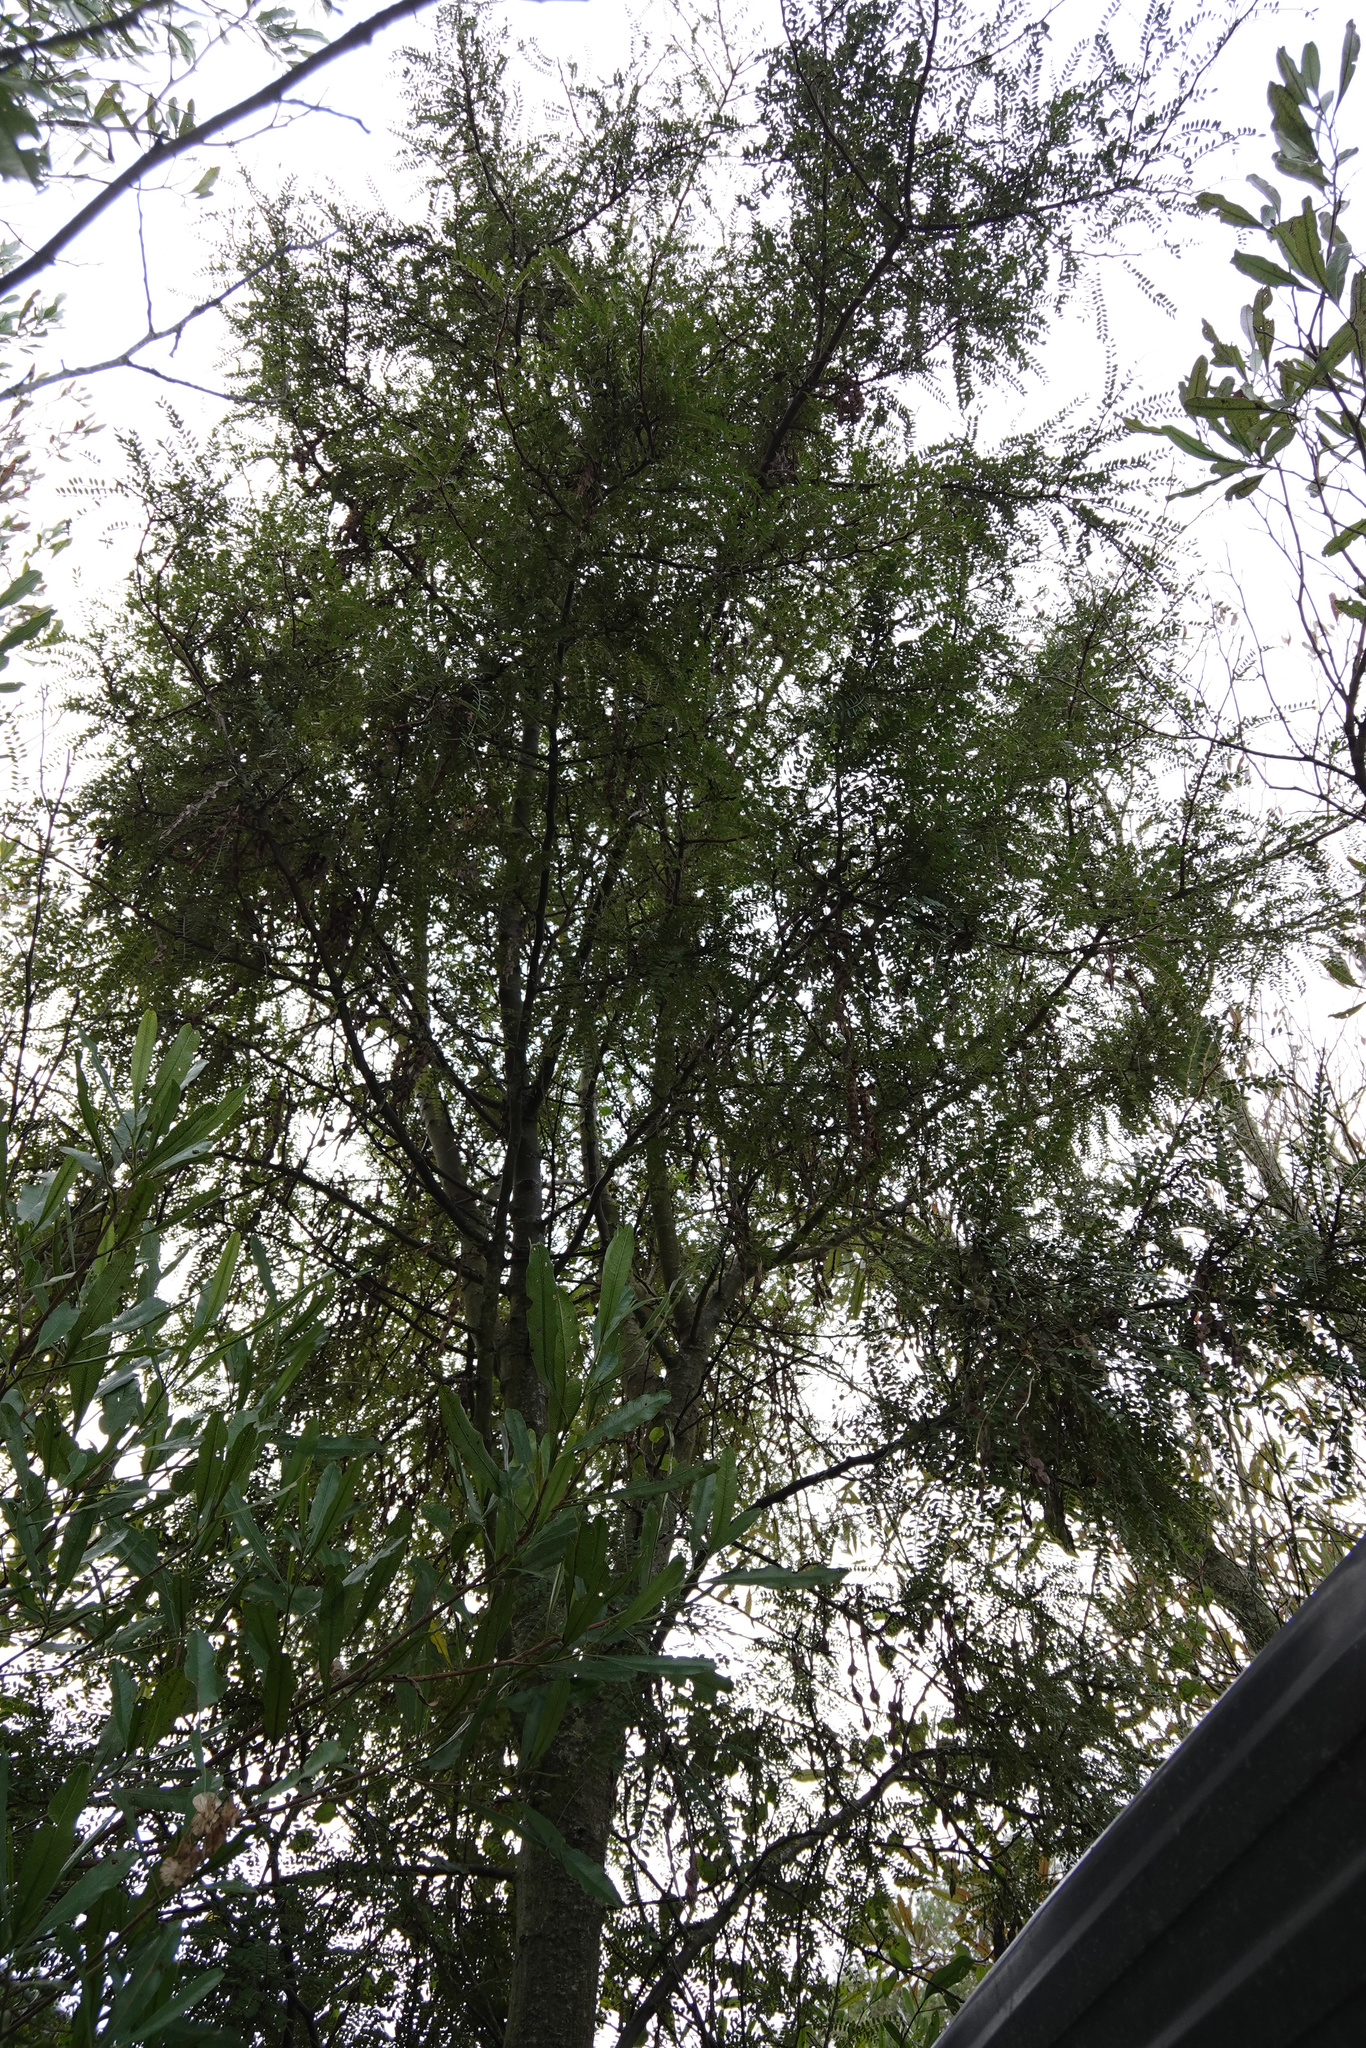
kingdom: Plantae
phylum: Tracheophyta
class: Magnoliopsida
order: Fabales
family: Fabaceae
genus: Sophora
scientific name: Sophora microphylla
